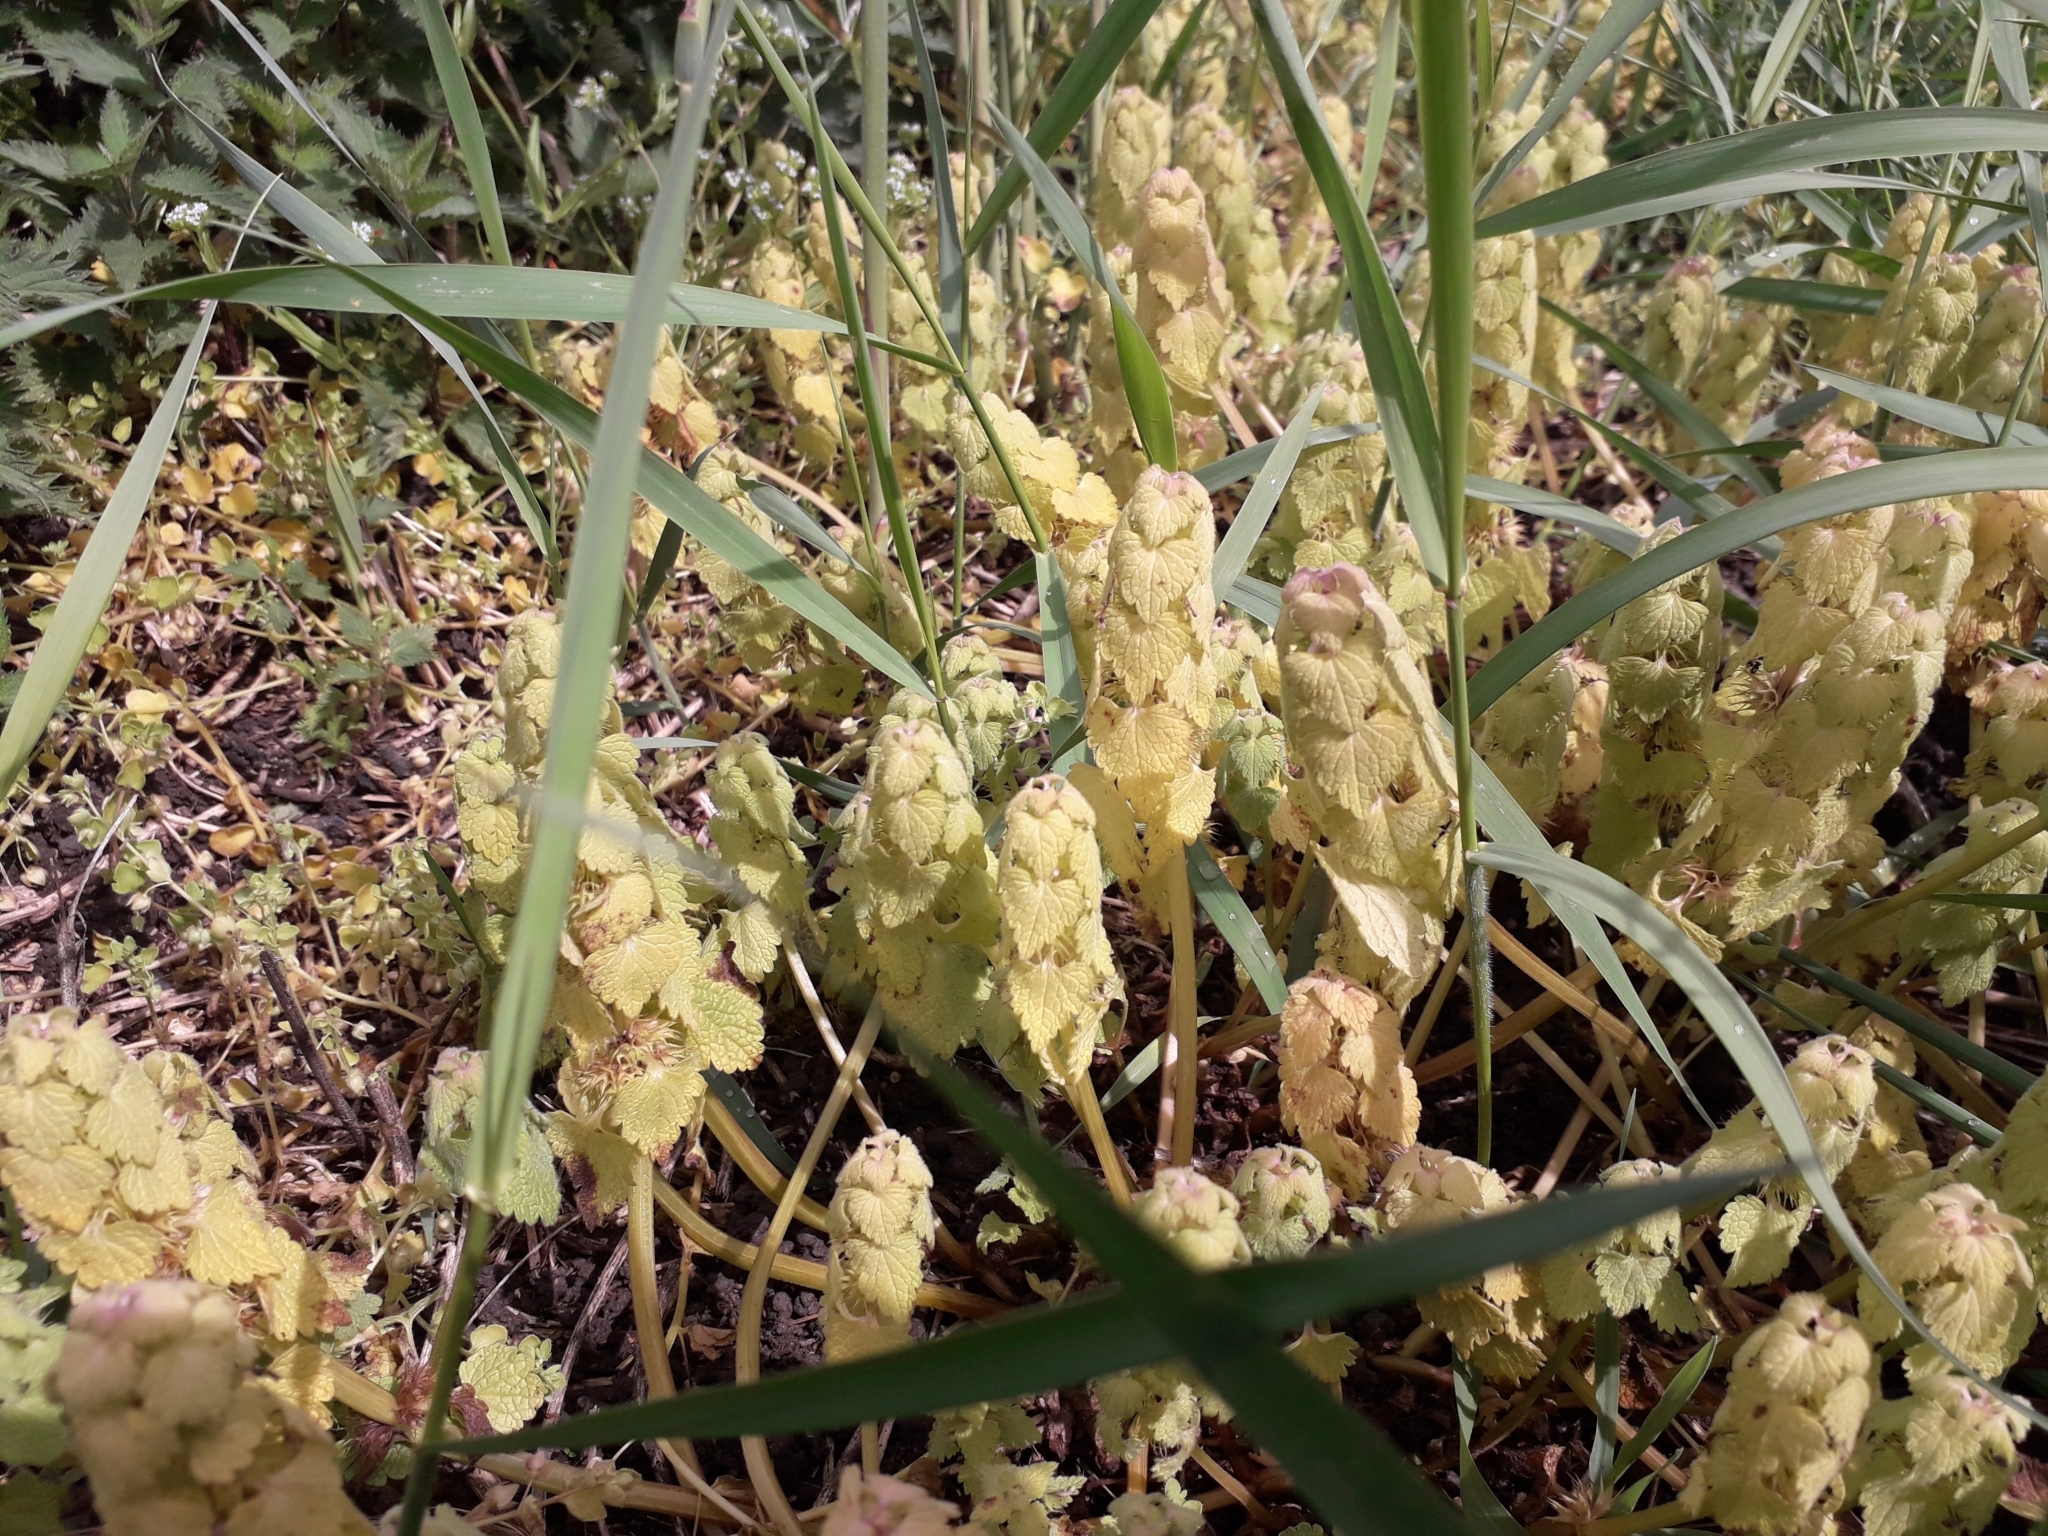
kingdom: Plantae
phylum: Tracheophyta
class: Magnoliopsida
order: Lamiales
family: Lamiaceae
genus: Lamium
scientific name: Lamium purpureum
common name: Red dead-nettle
